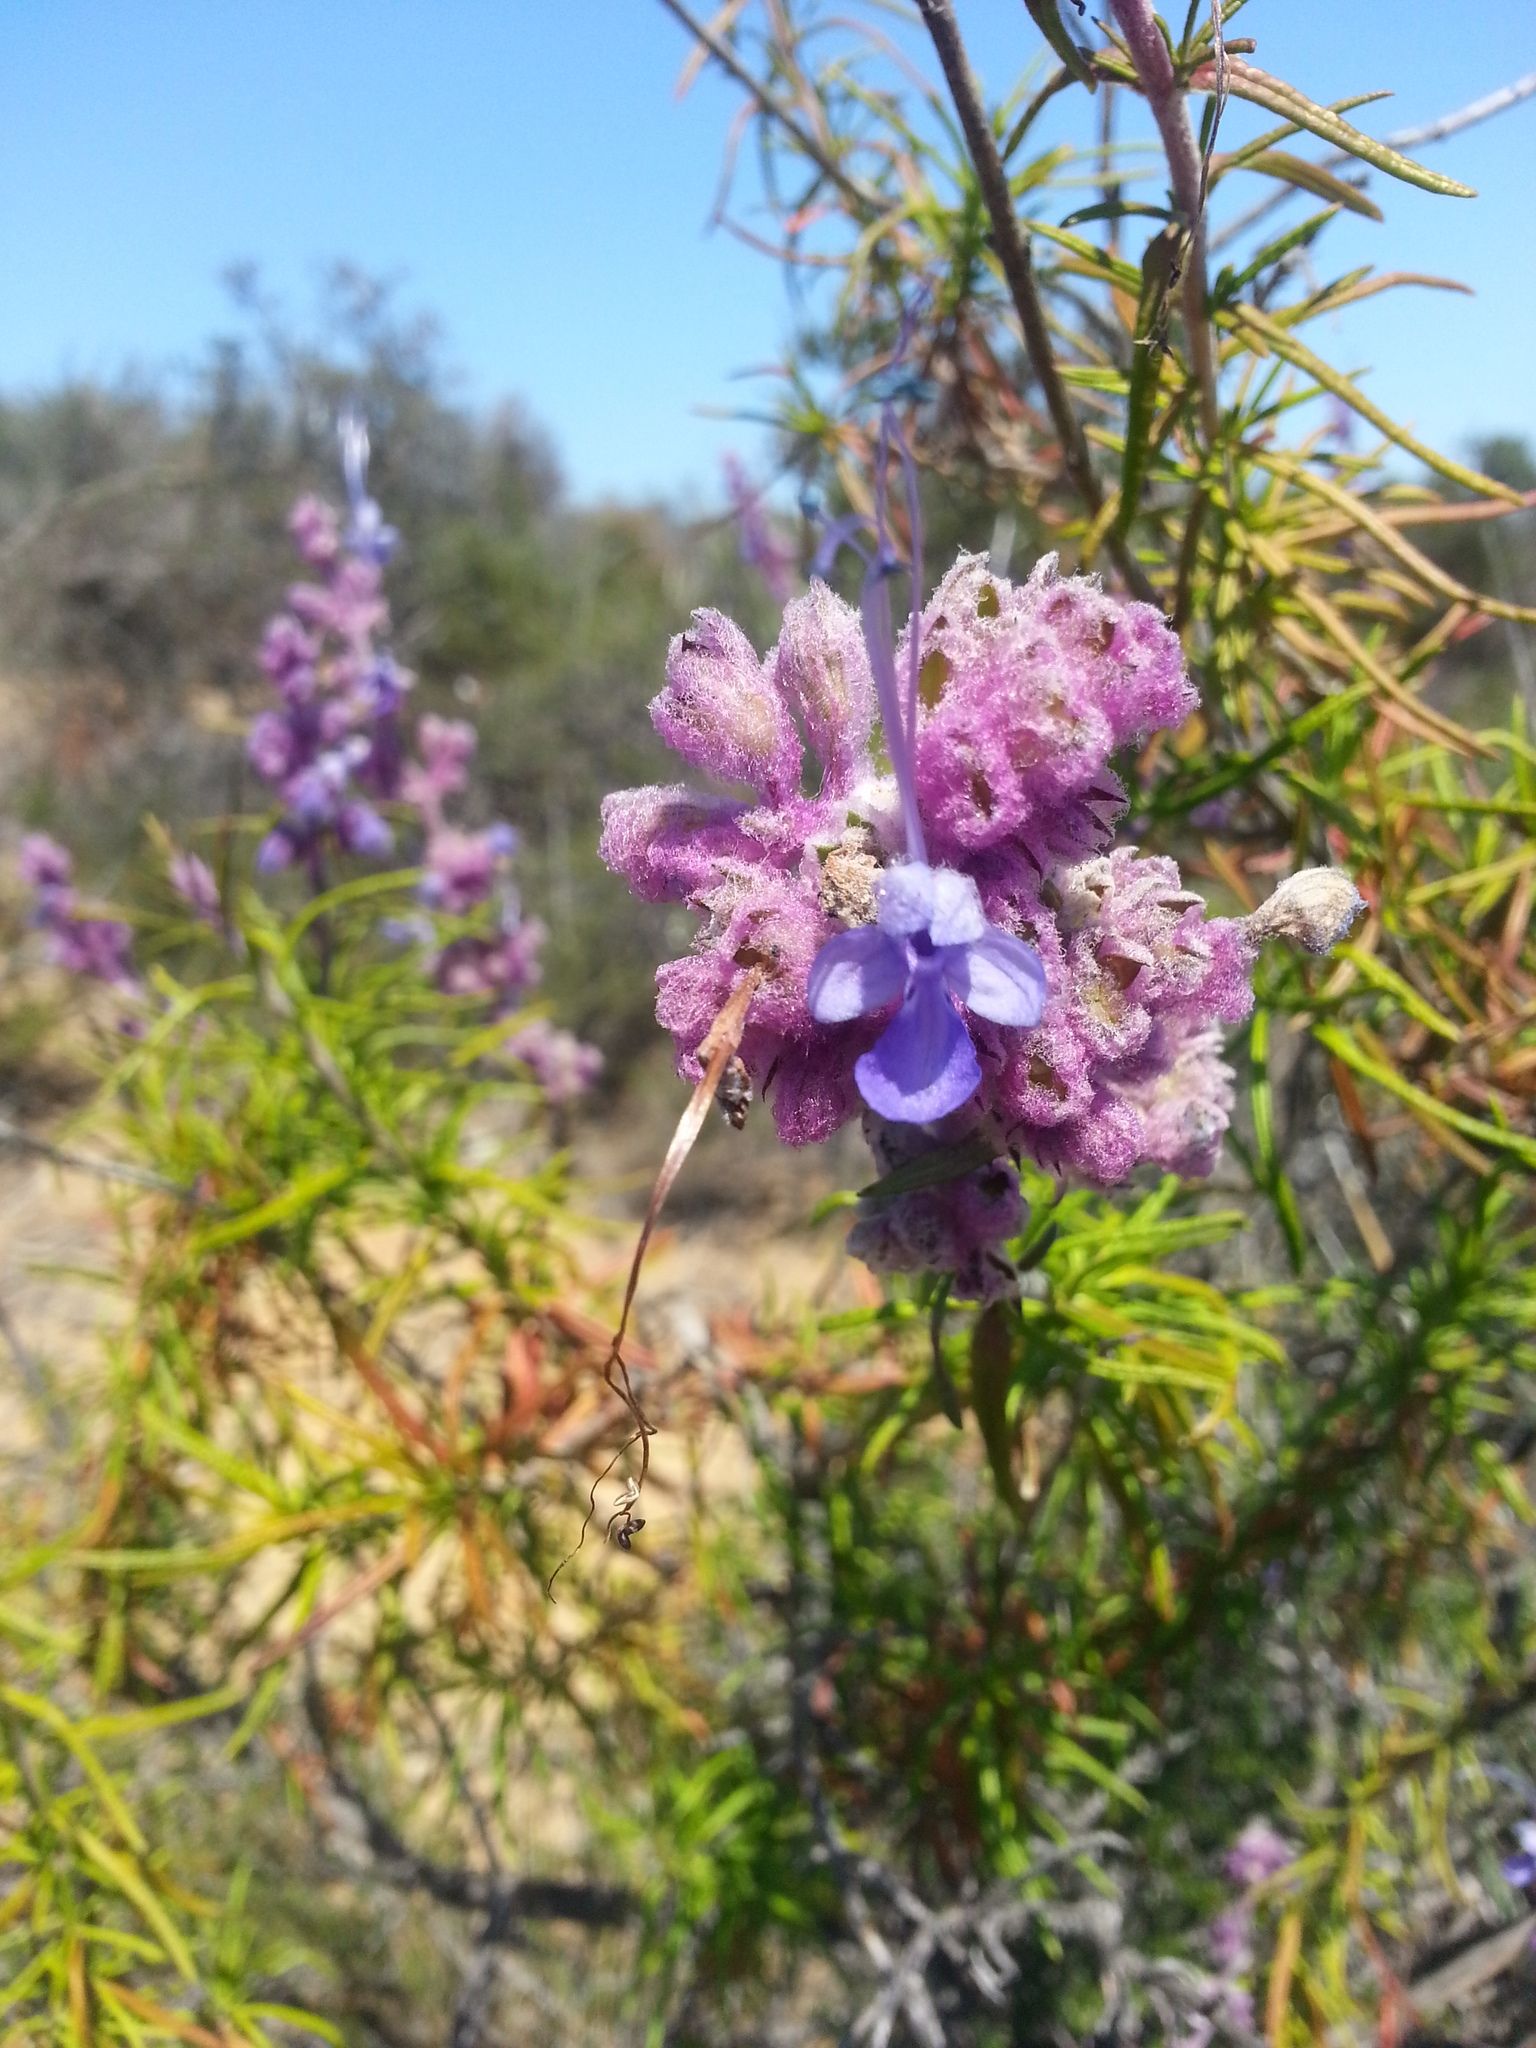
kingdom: Plantae
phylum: Tracheophyta
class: Magnoliopsida
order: Lamiales
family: Lamiaceae
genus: Trichostema
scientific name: Trichostema lanatum
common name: Woolly bluecurls
